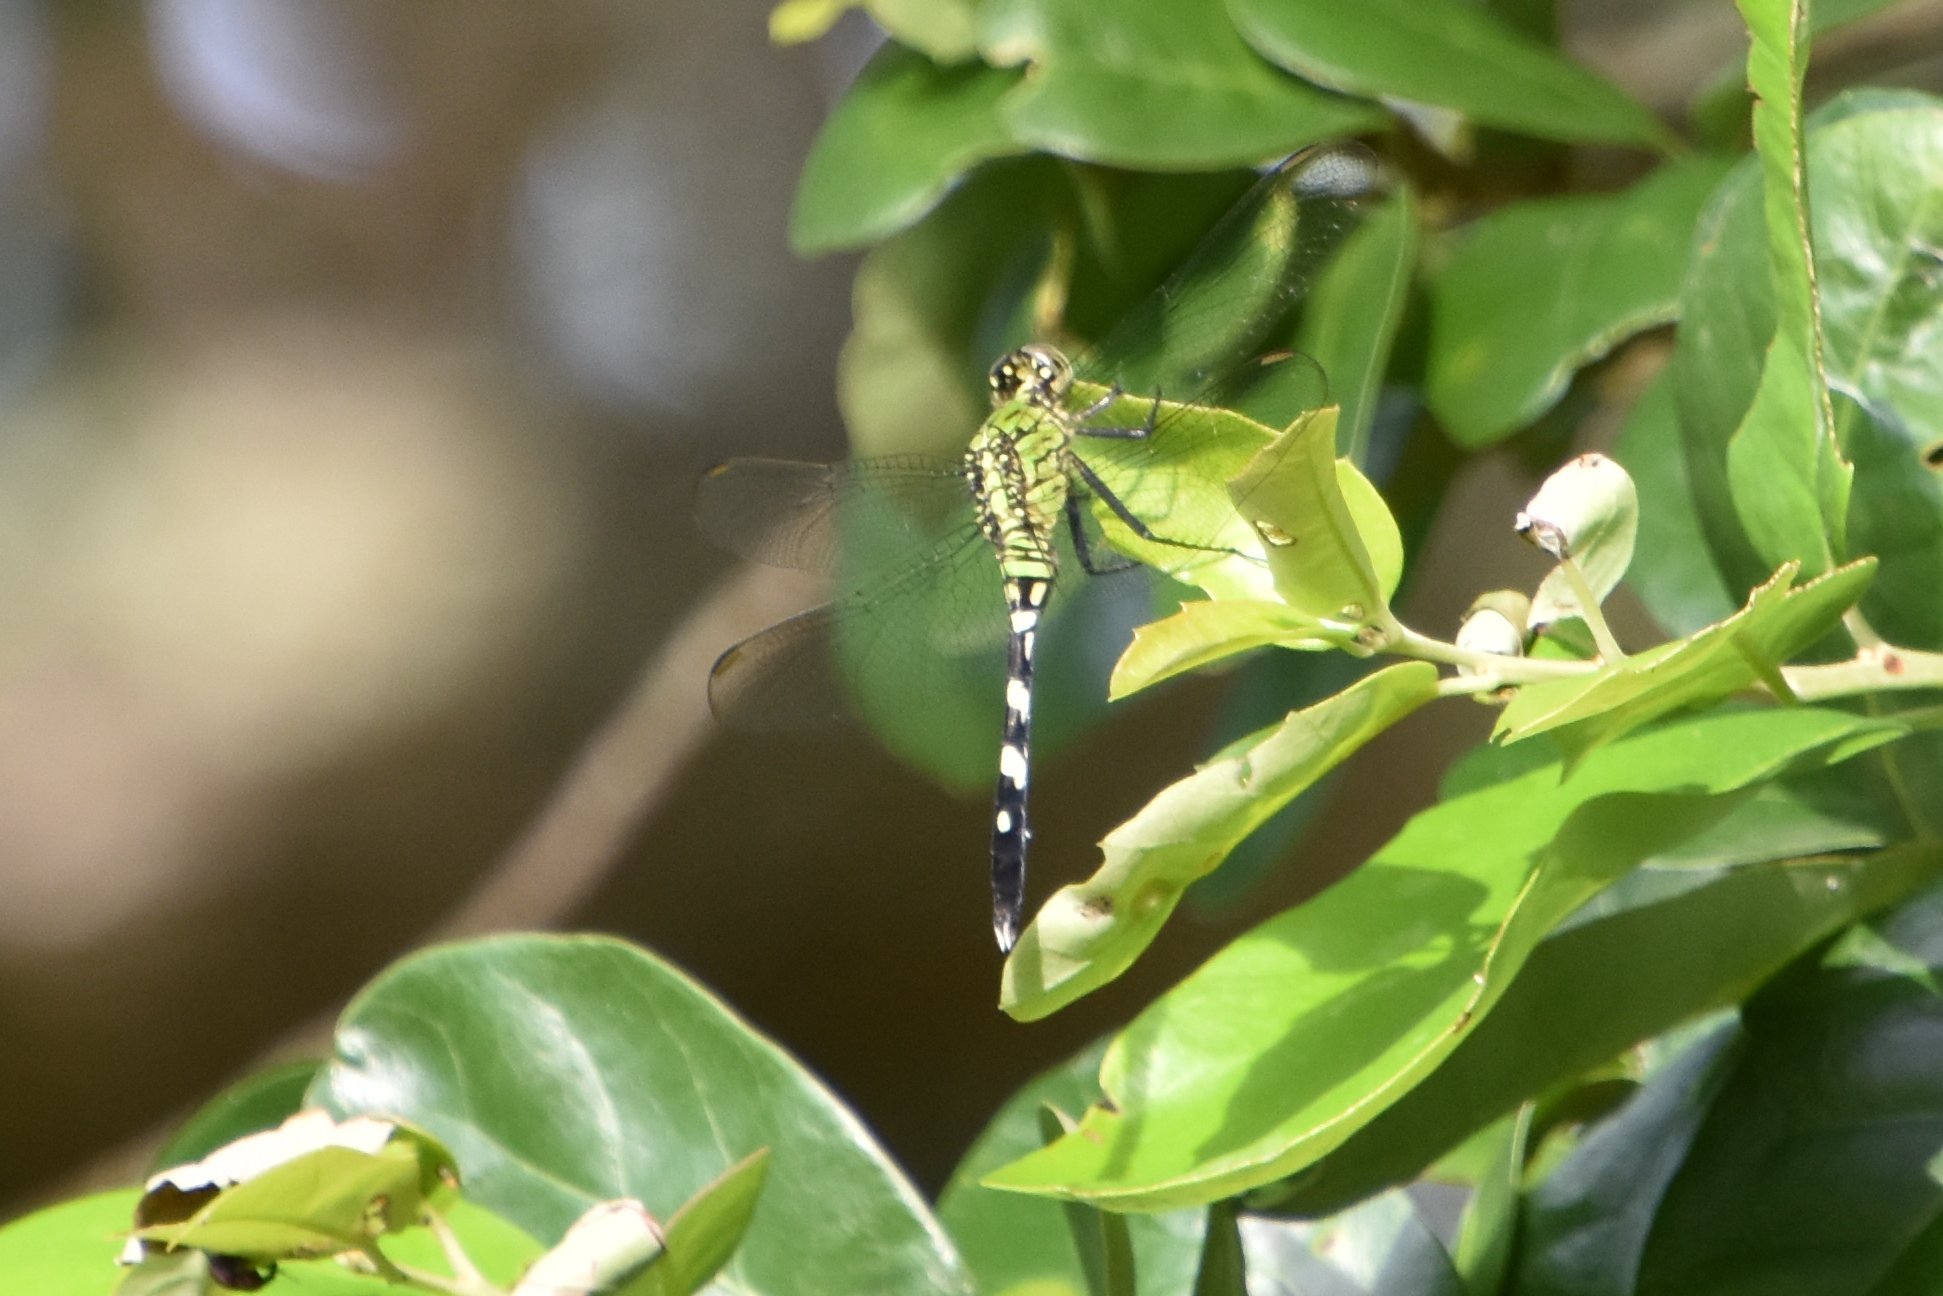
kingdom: Animalia
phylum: Arthropoda
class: Insecta
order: Odonata
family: Libellulidae
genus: Erythemis
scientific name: Erythemis simplicicollis
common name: Eastern pondhawk
